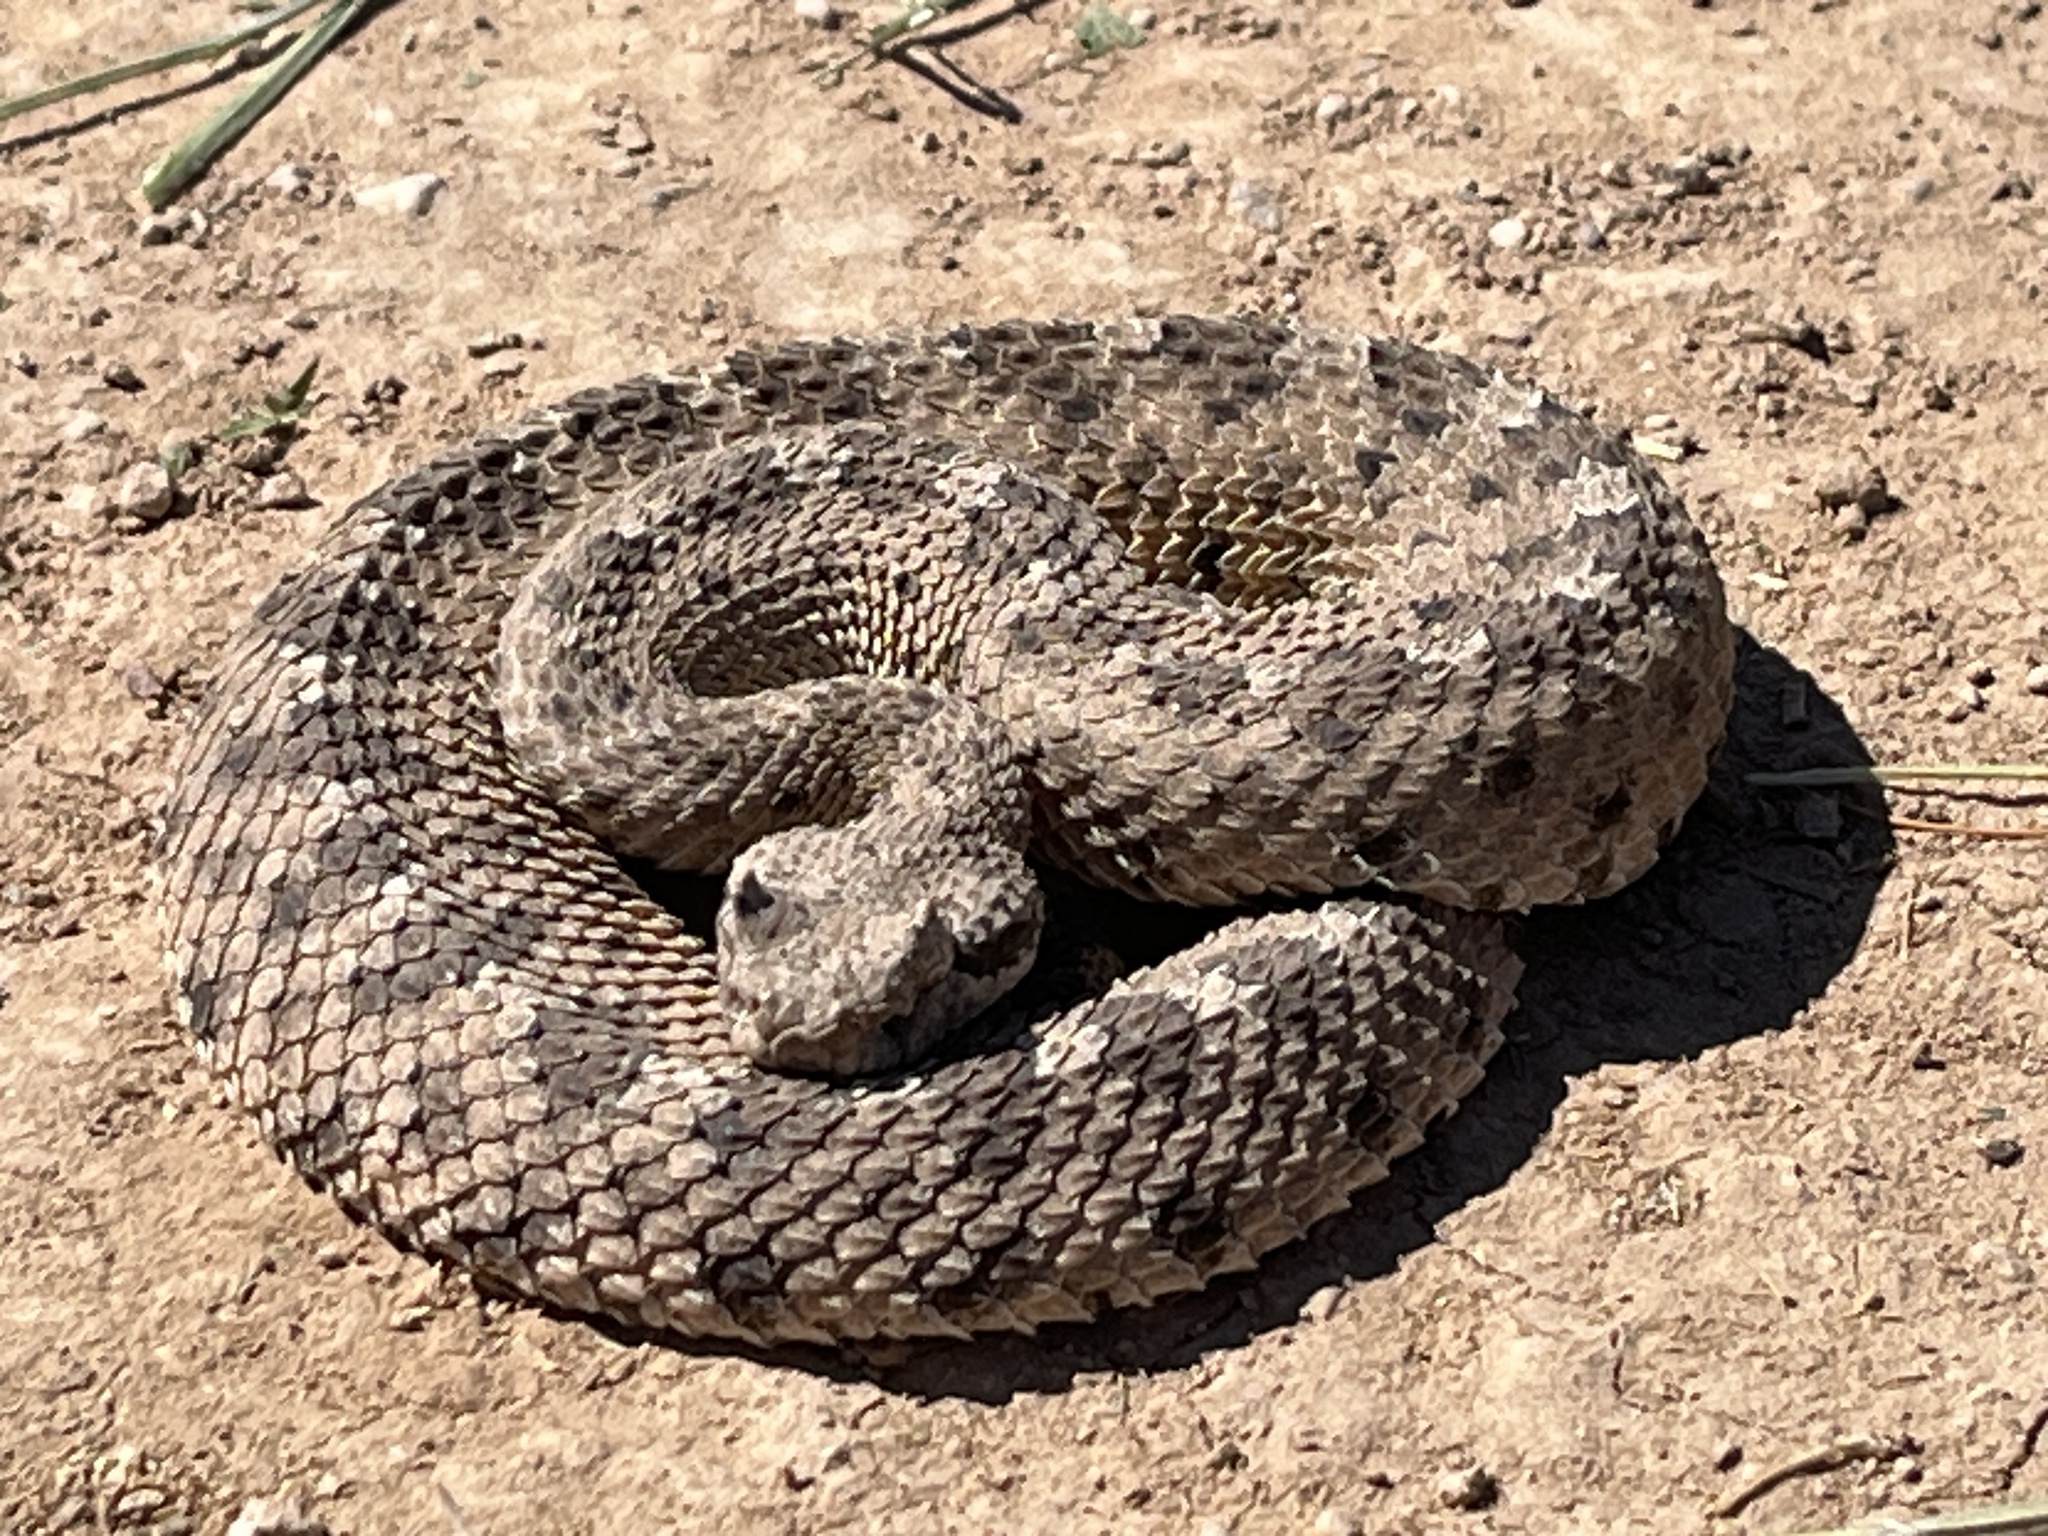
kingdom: Animalia
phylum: Chordata
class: Squamata
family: Viperidae
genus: Crotalus
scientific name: Crotalus cerastes
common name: Sidewinder
